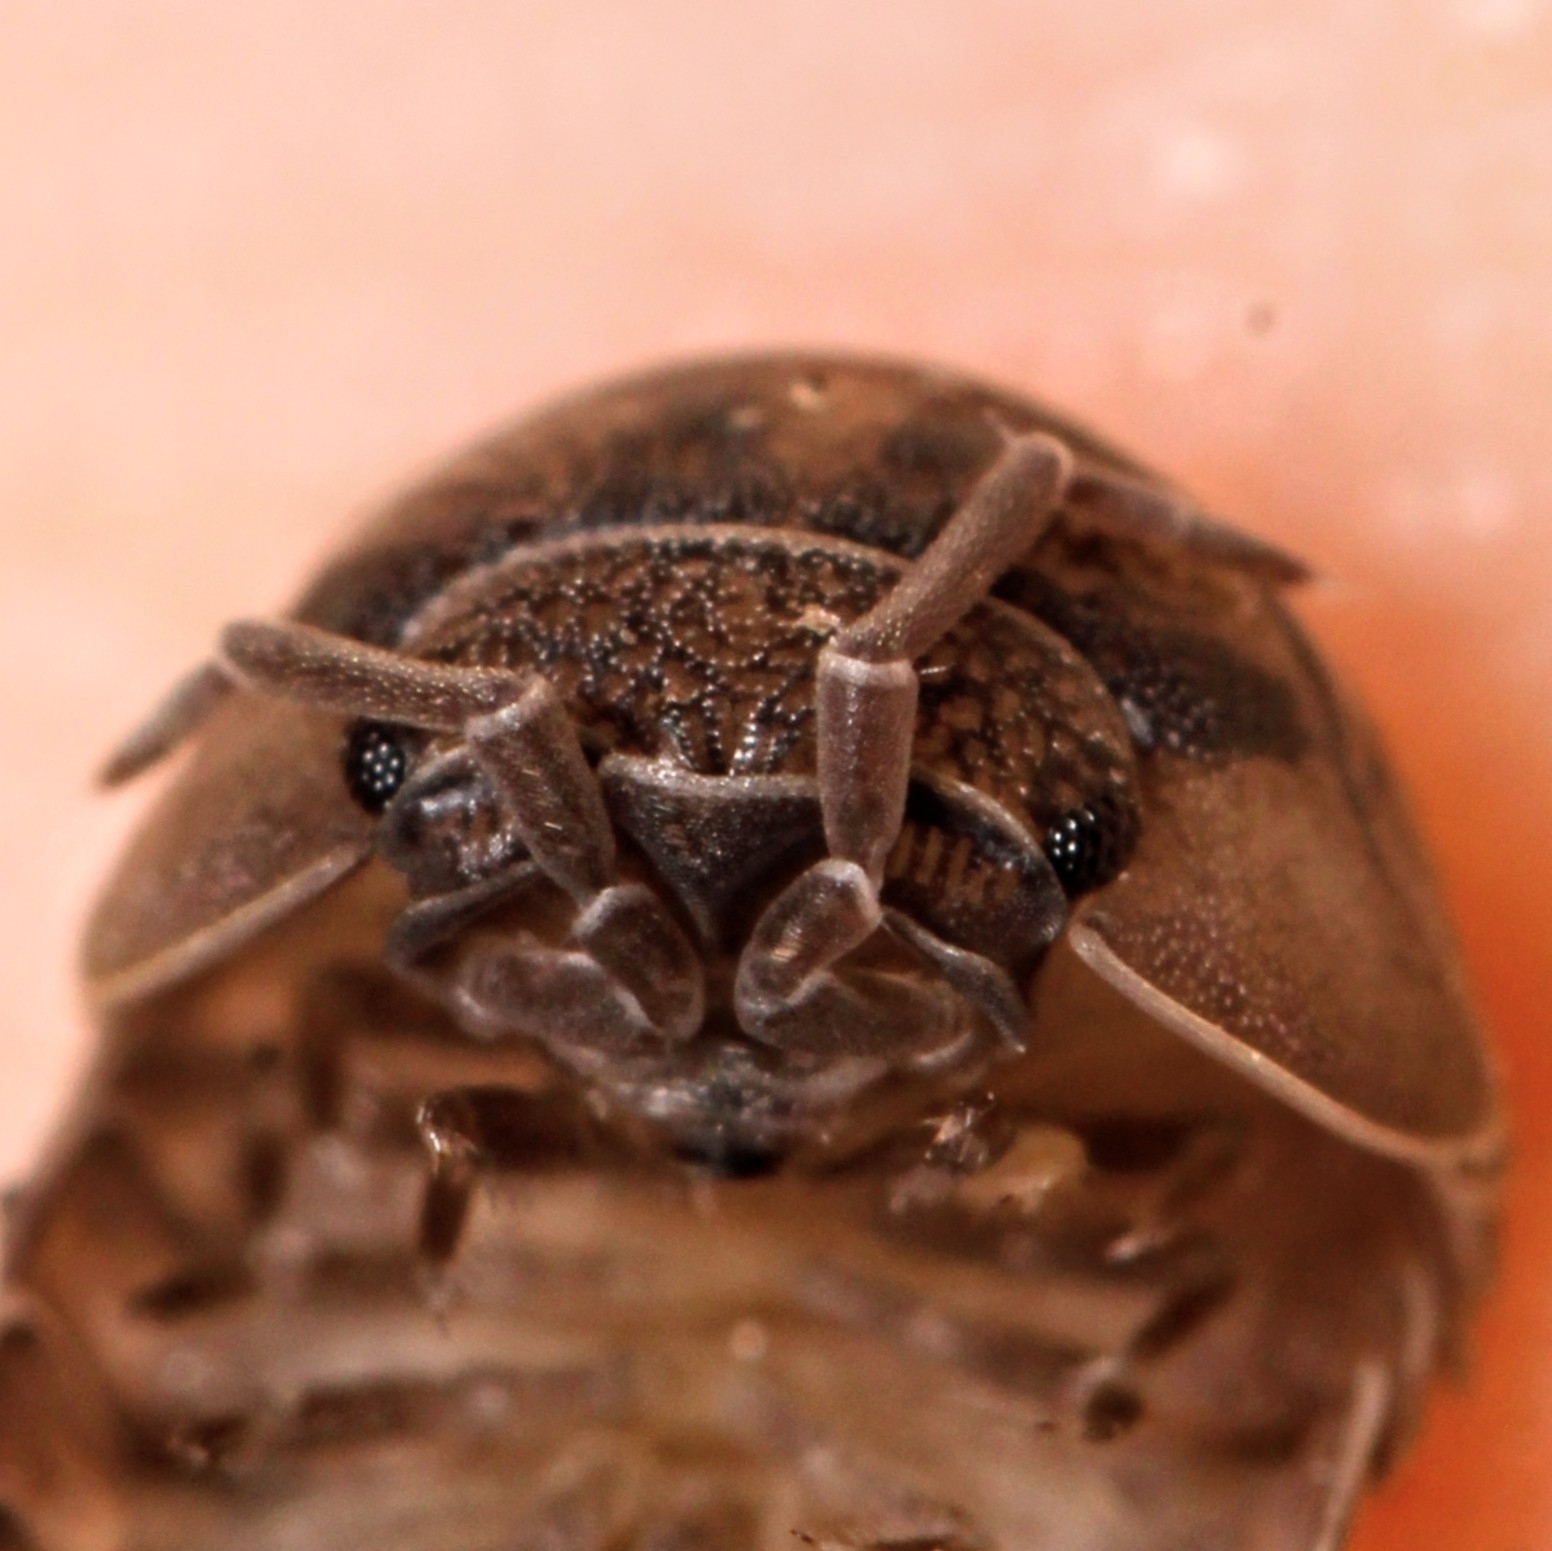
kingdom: Animalia
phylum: Arthropoda
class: Malacostraca
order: Isopoda
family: Armadillidiidae
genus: Armadillidium
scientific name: Armadillidium nasatum
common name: Isopod
